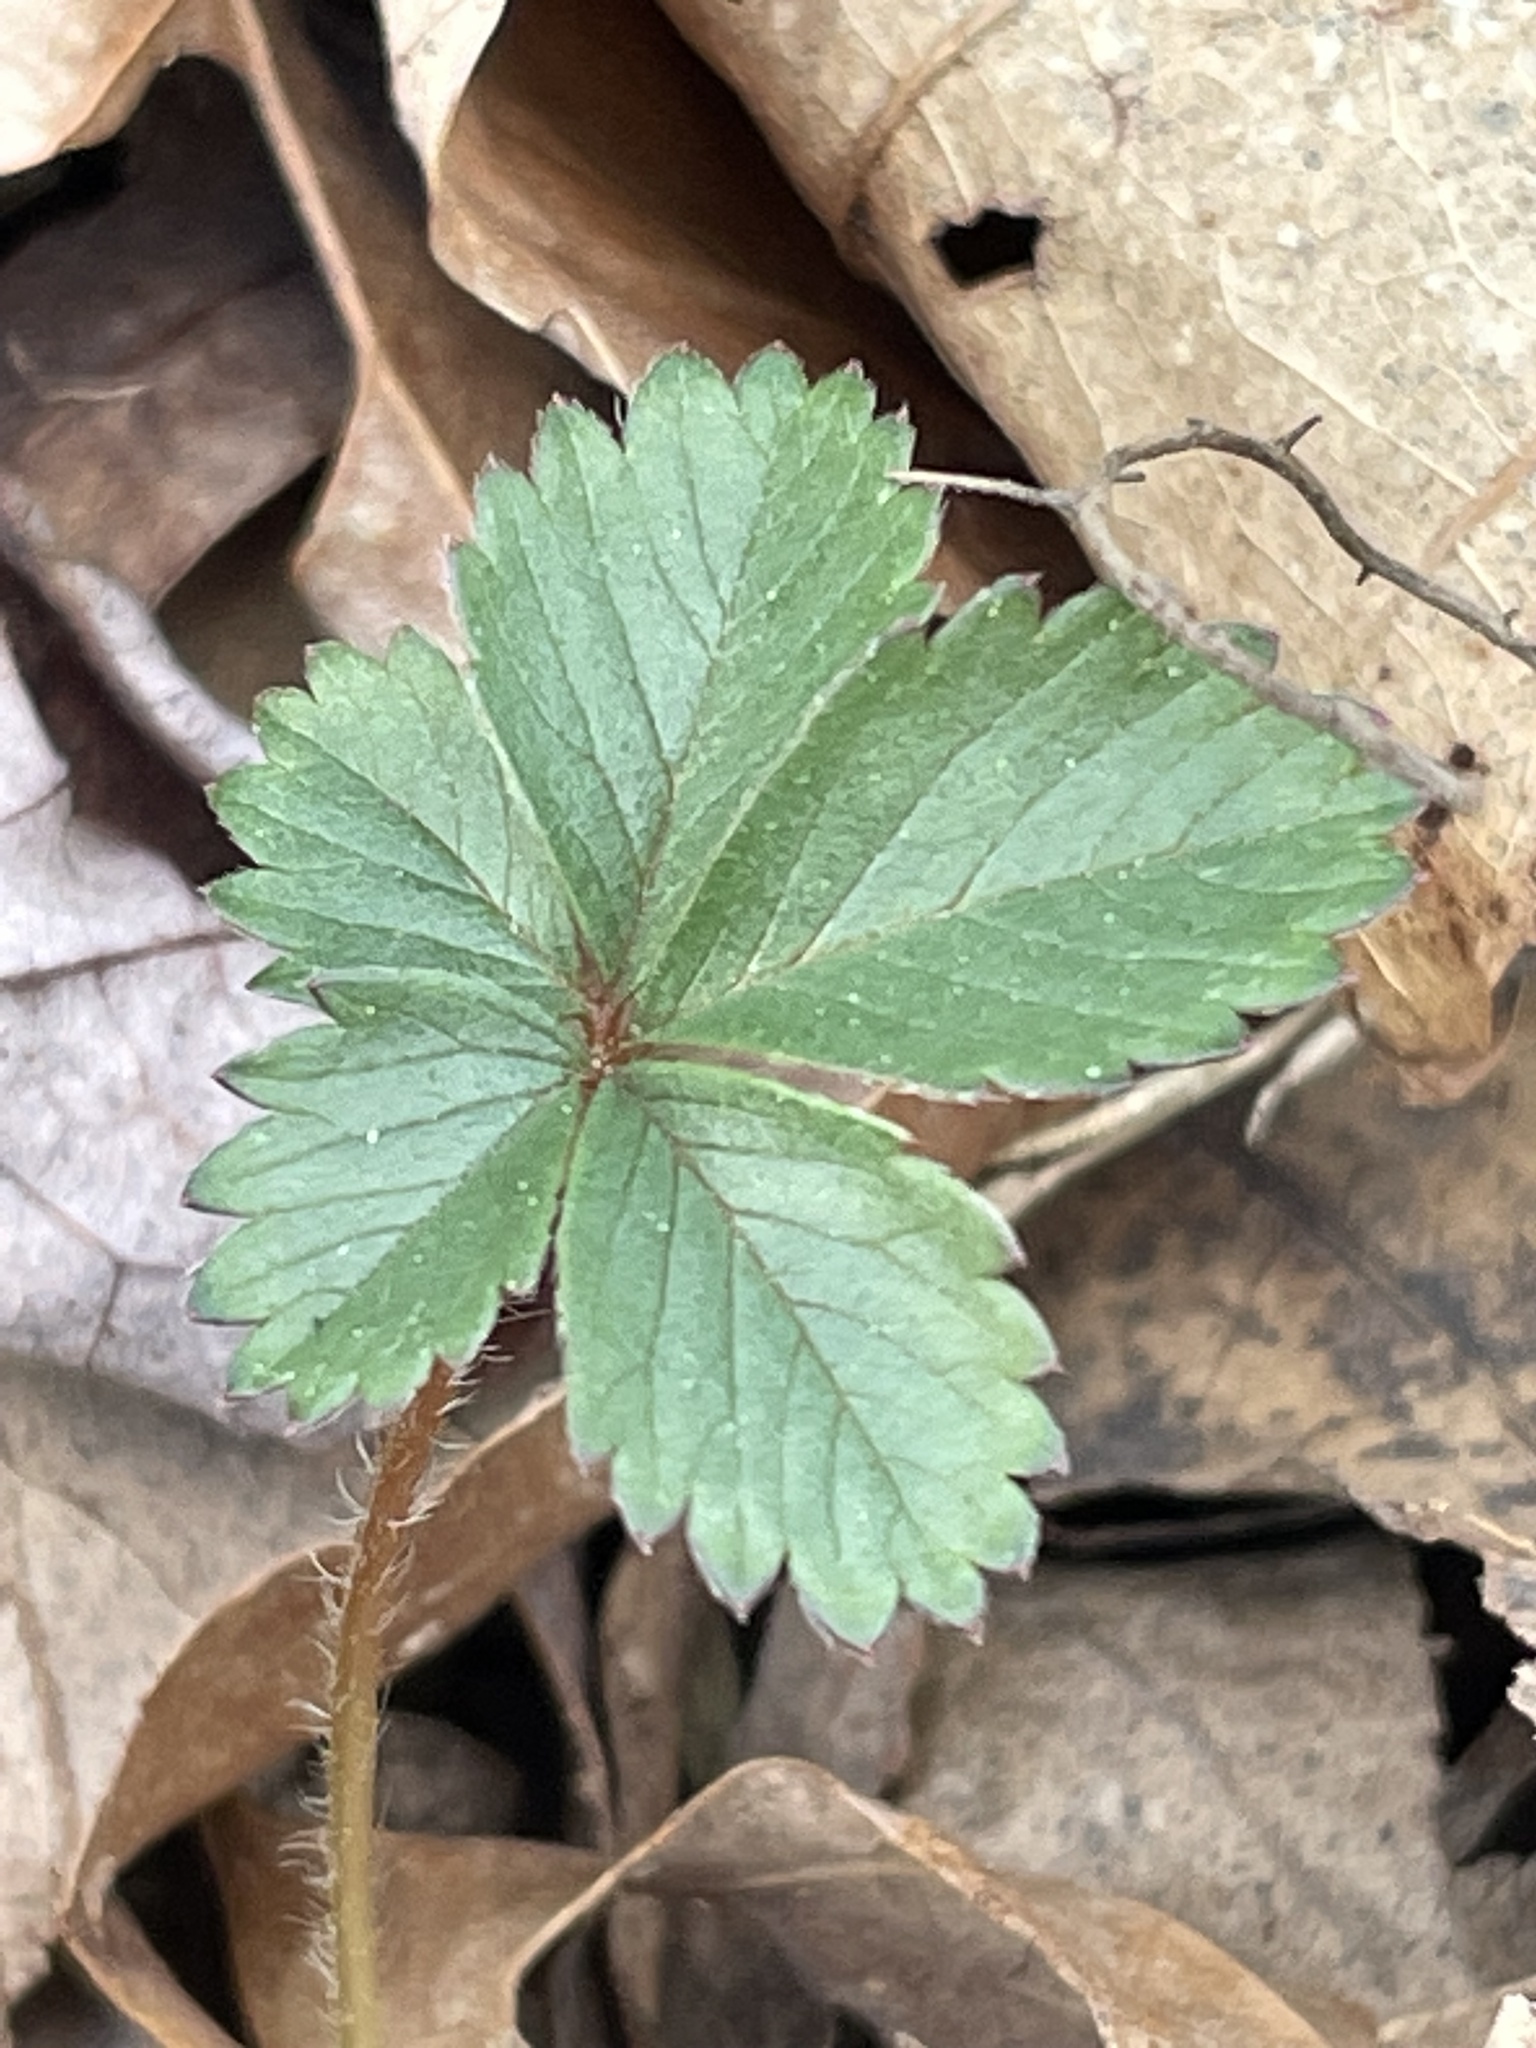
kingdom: Plantae
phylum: Tracheophyta
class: Magnoliopsida
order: Rosales
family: Rosaceae
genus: Potentilla
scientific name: Potentilla canadensis
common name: Canada cinquefoil
